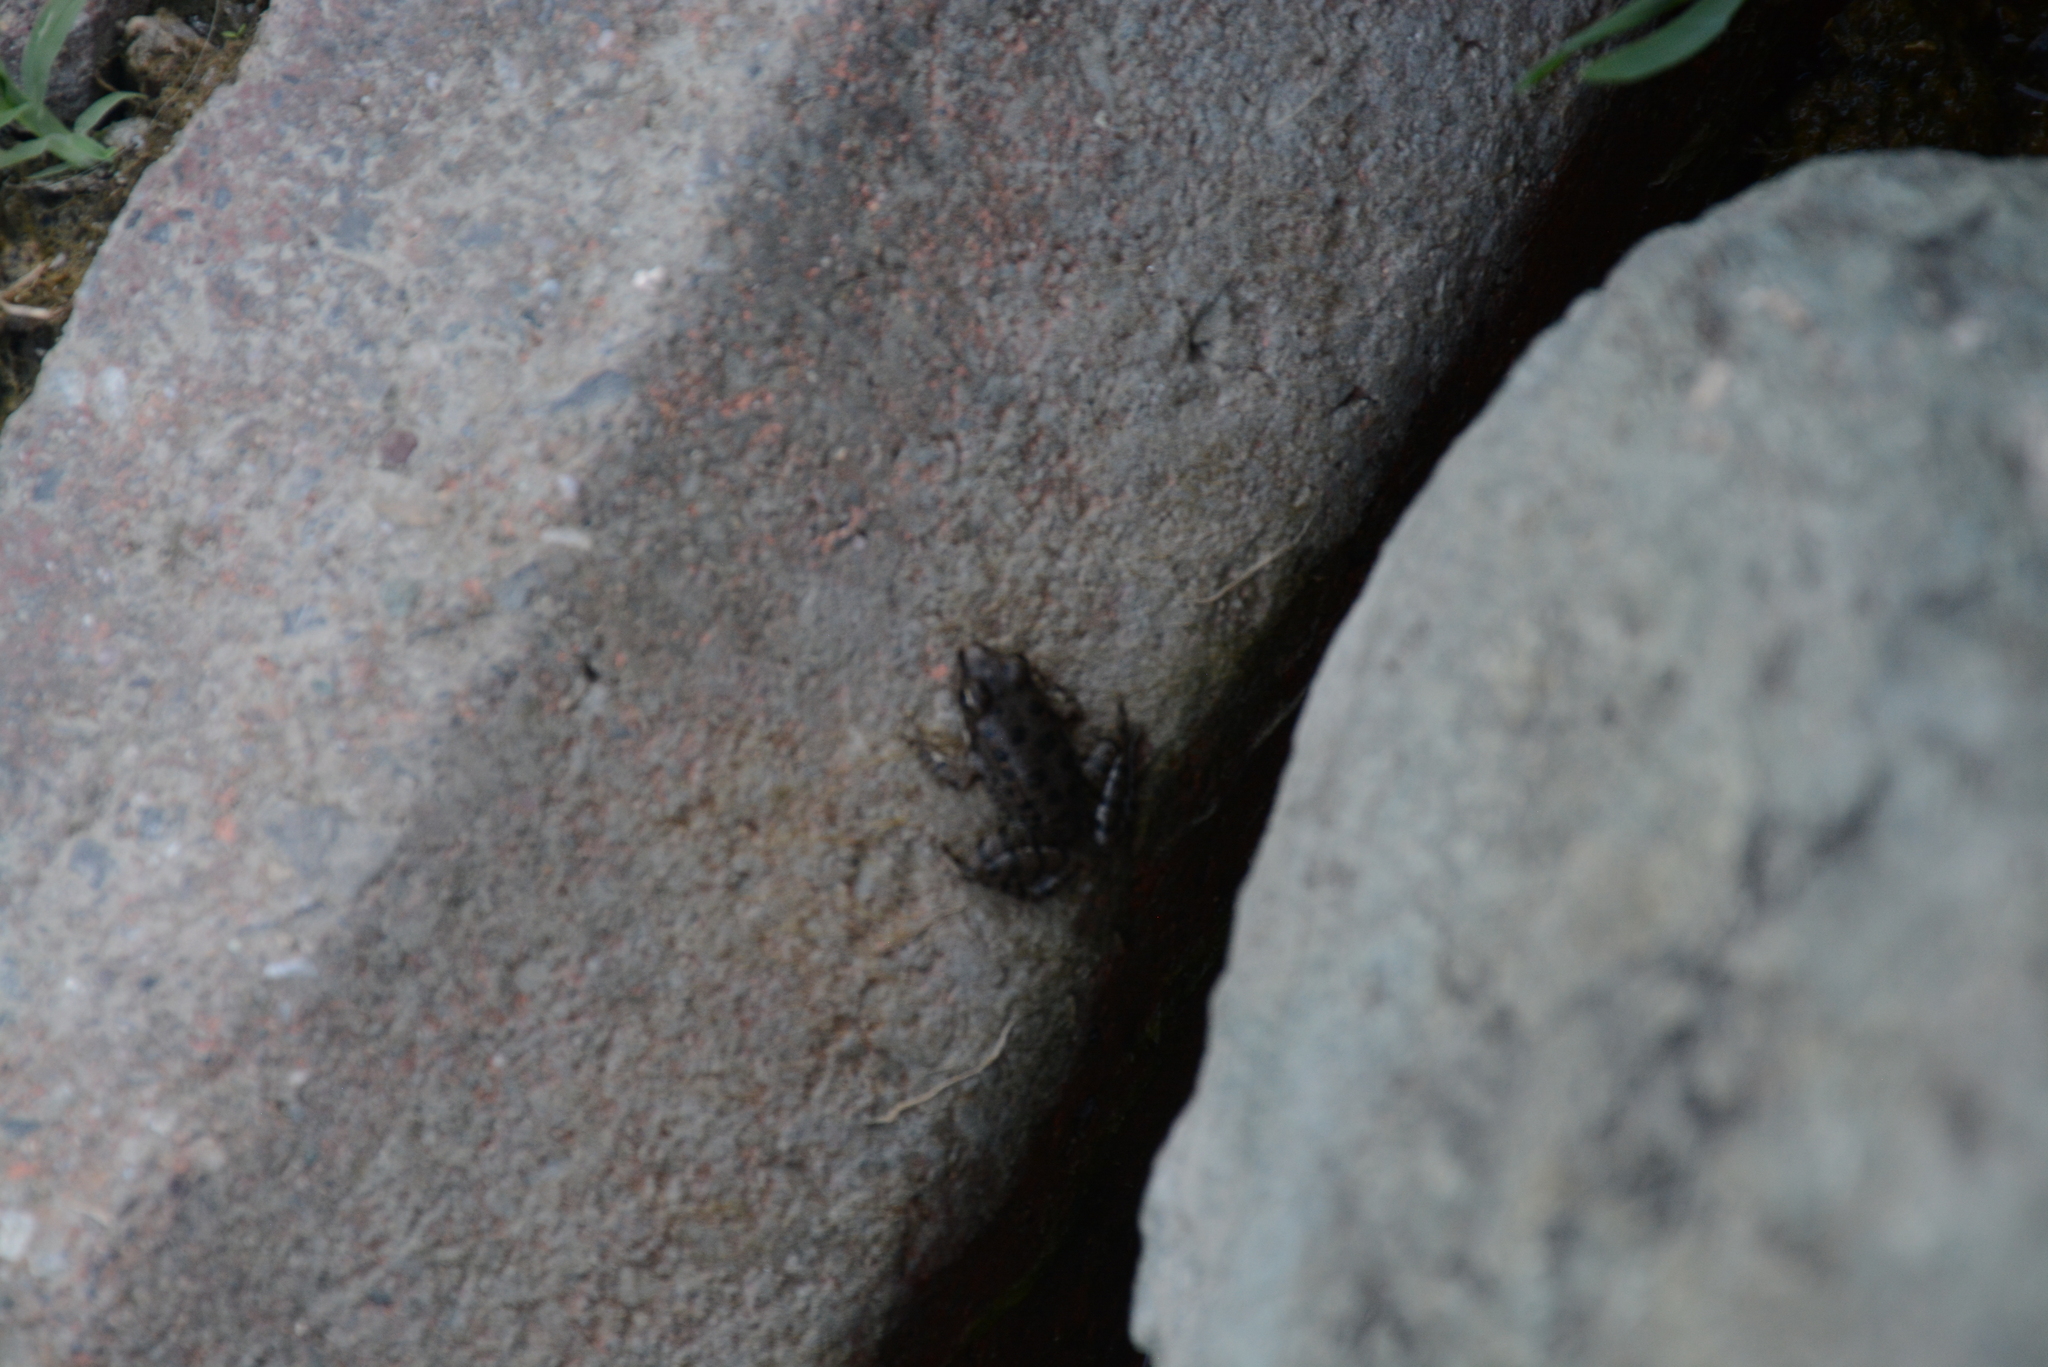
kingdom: Animalia
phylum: Chordata
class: Amphibia
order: Anura
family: Ranidae
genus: Pelophylax
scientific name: Pelophylax ridibundus
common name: Marsh frog
